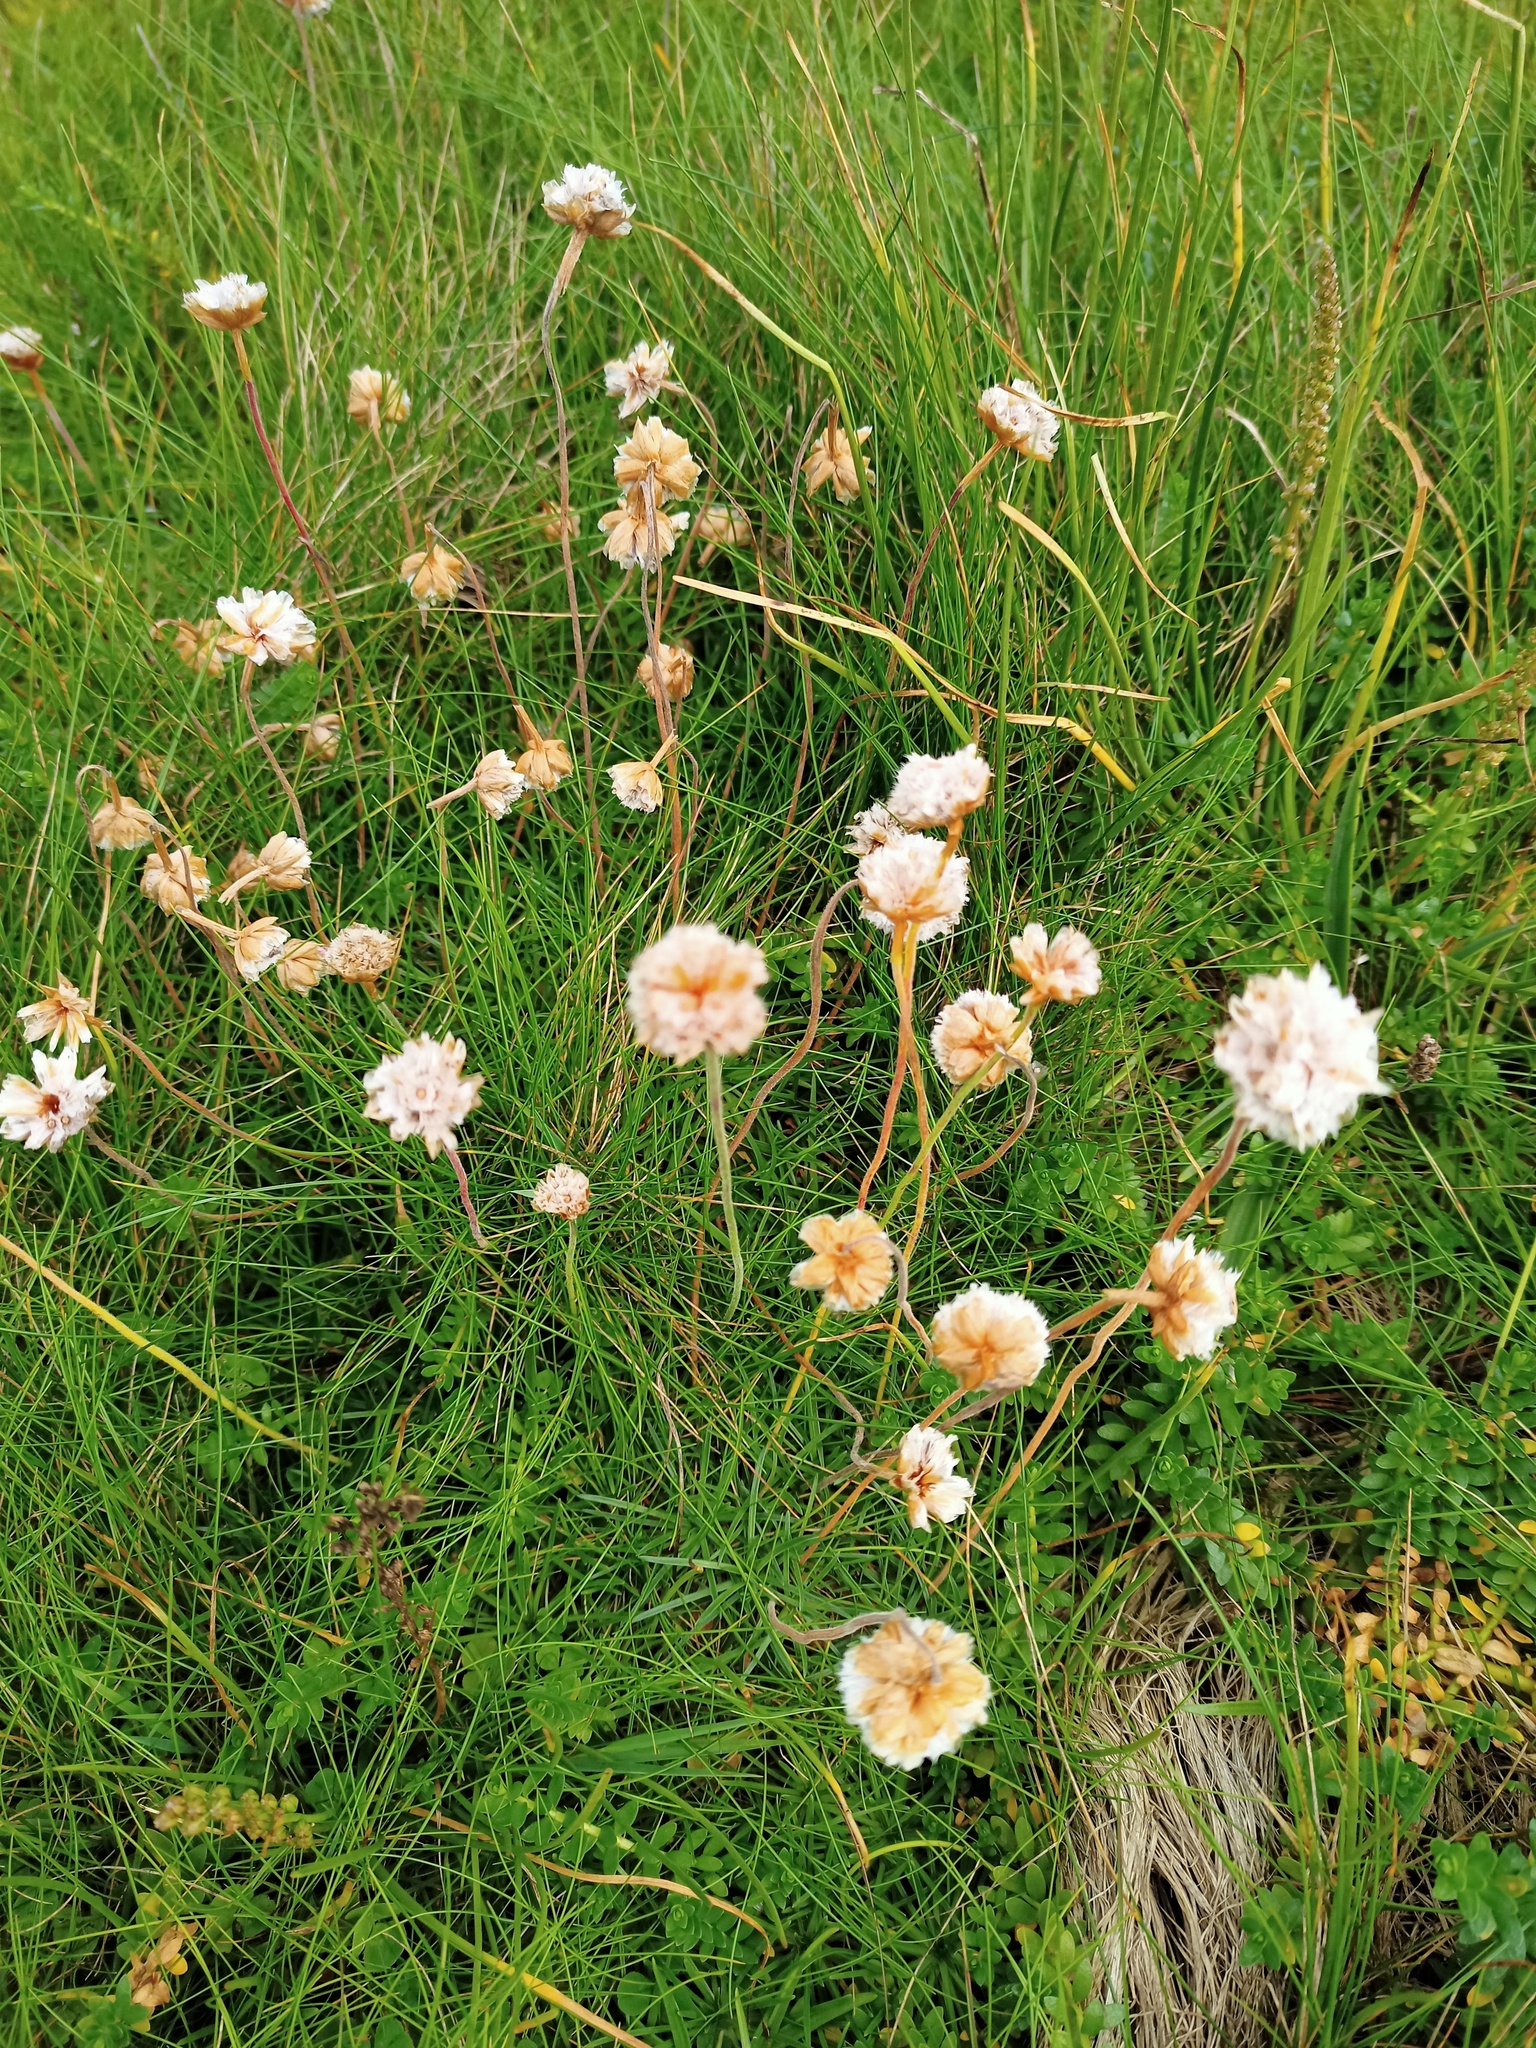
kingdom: Plantae
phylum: Tracheophyta
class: Magnoliopsida
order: Caryophyllales
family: Plumbaginaceae
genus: Armeria
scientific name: Armeria maritima
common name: Thrift
